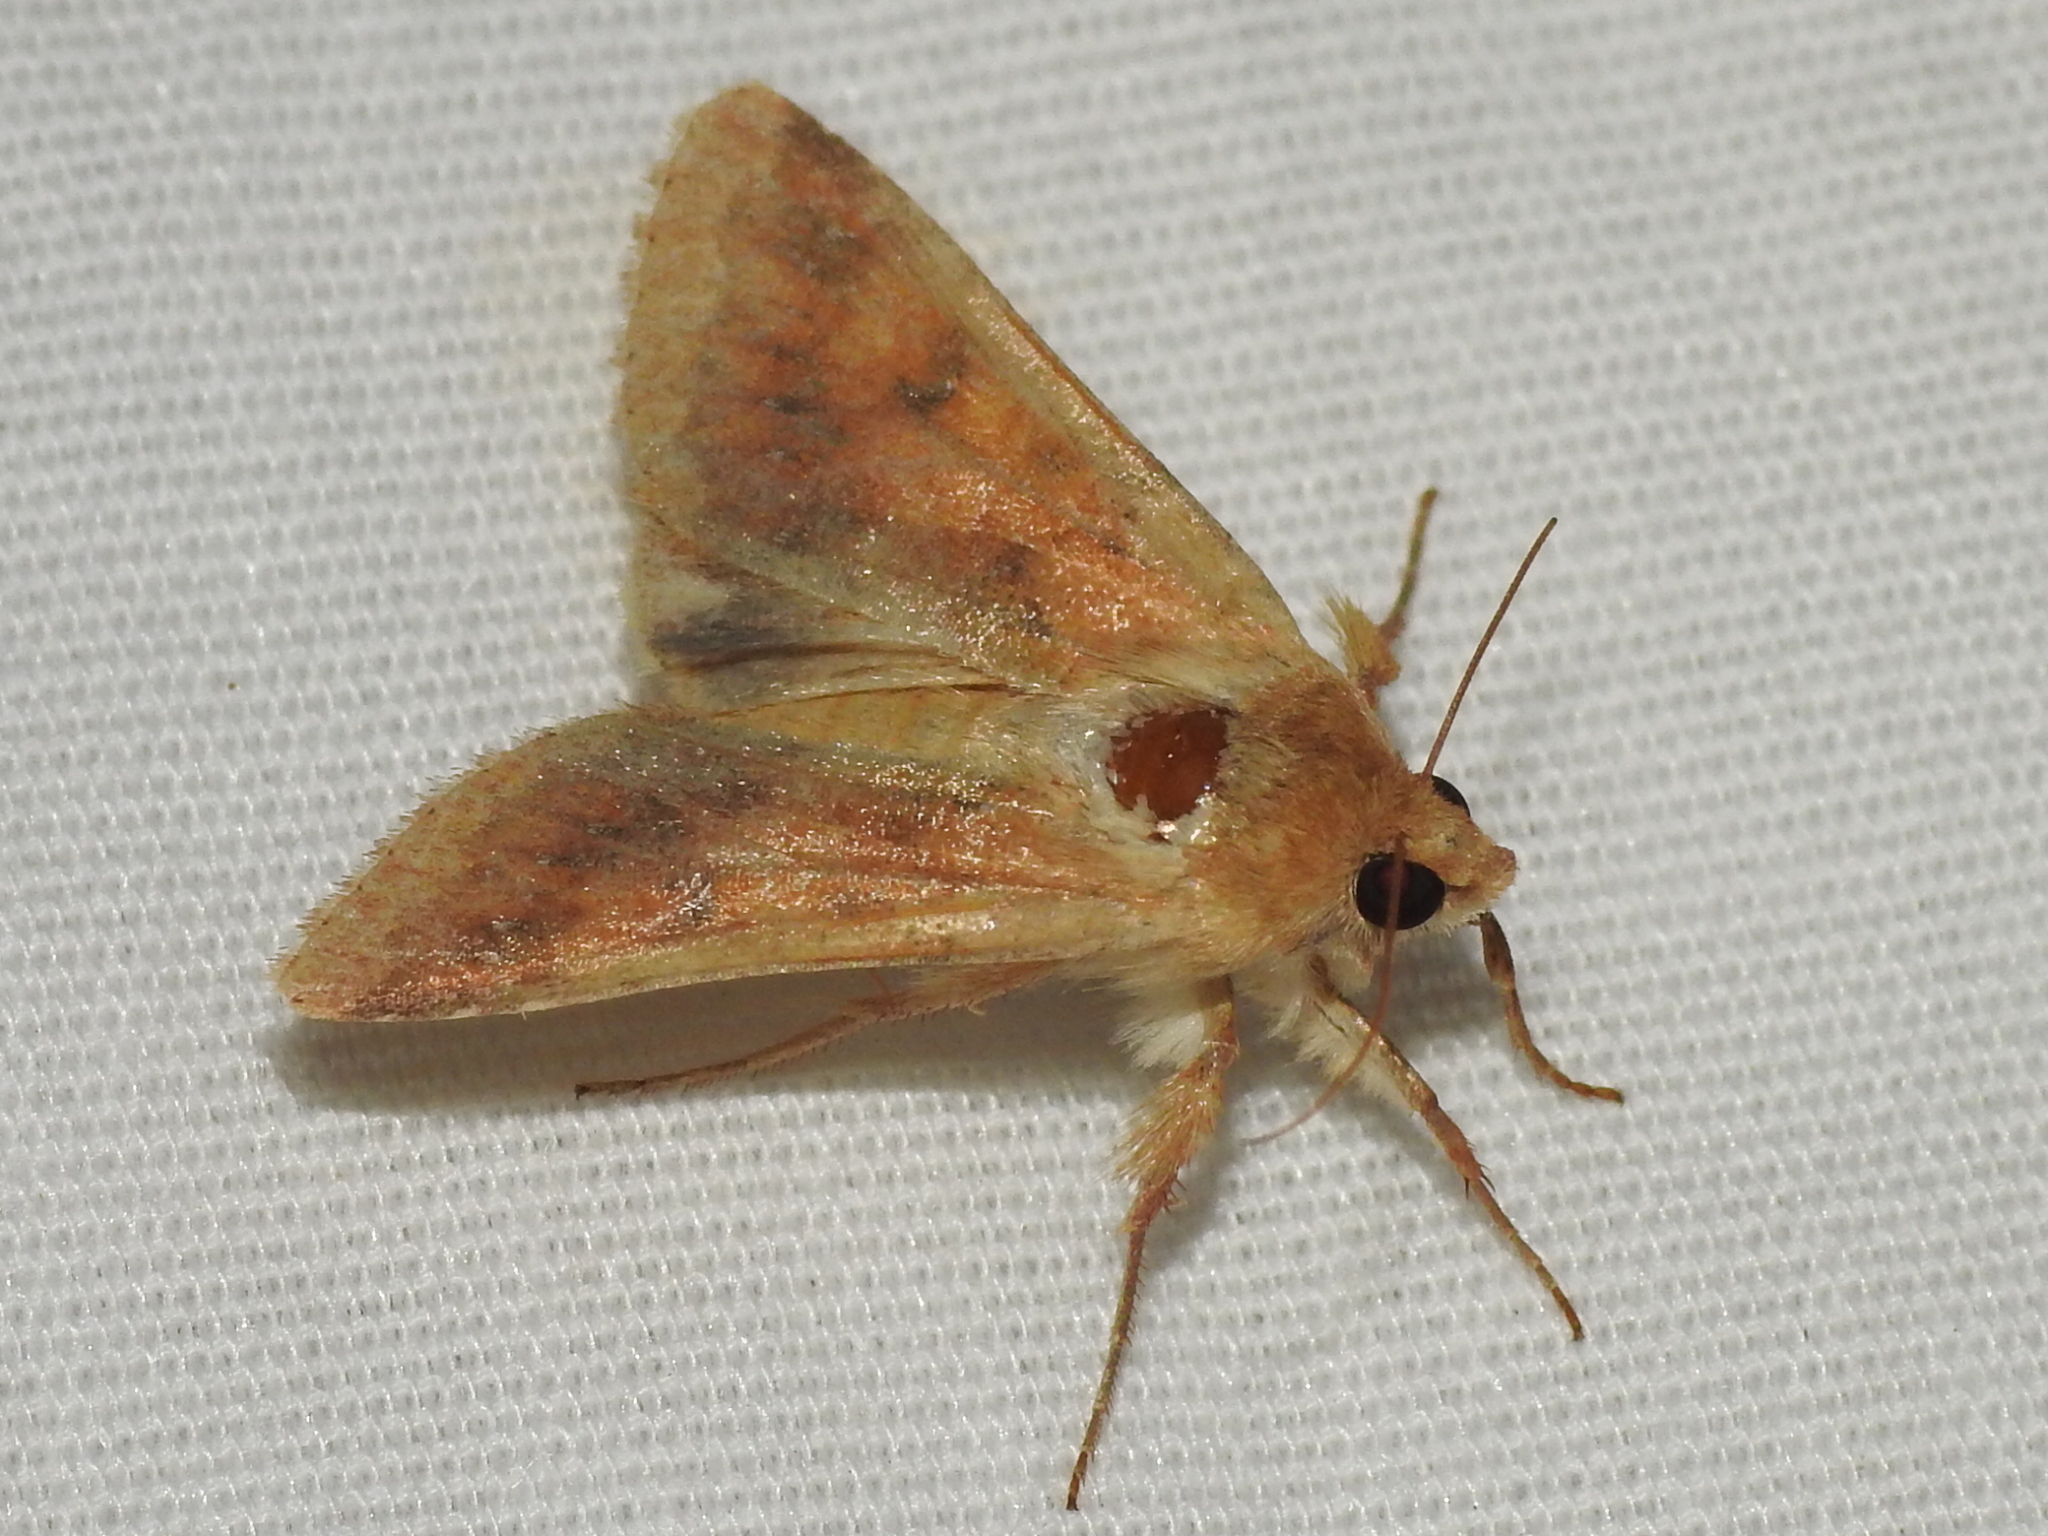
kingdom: Animalia
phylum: Arthropoda
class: Insecta
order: Lepidoptera
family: Noctuidae
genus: Helicoverpa
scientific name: Helicoverpa zea
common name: Bollworm
